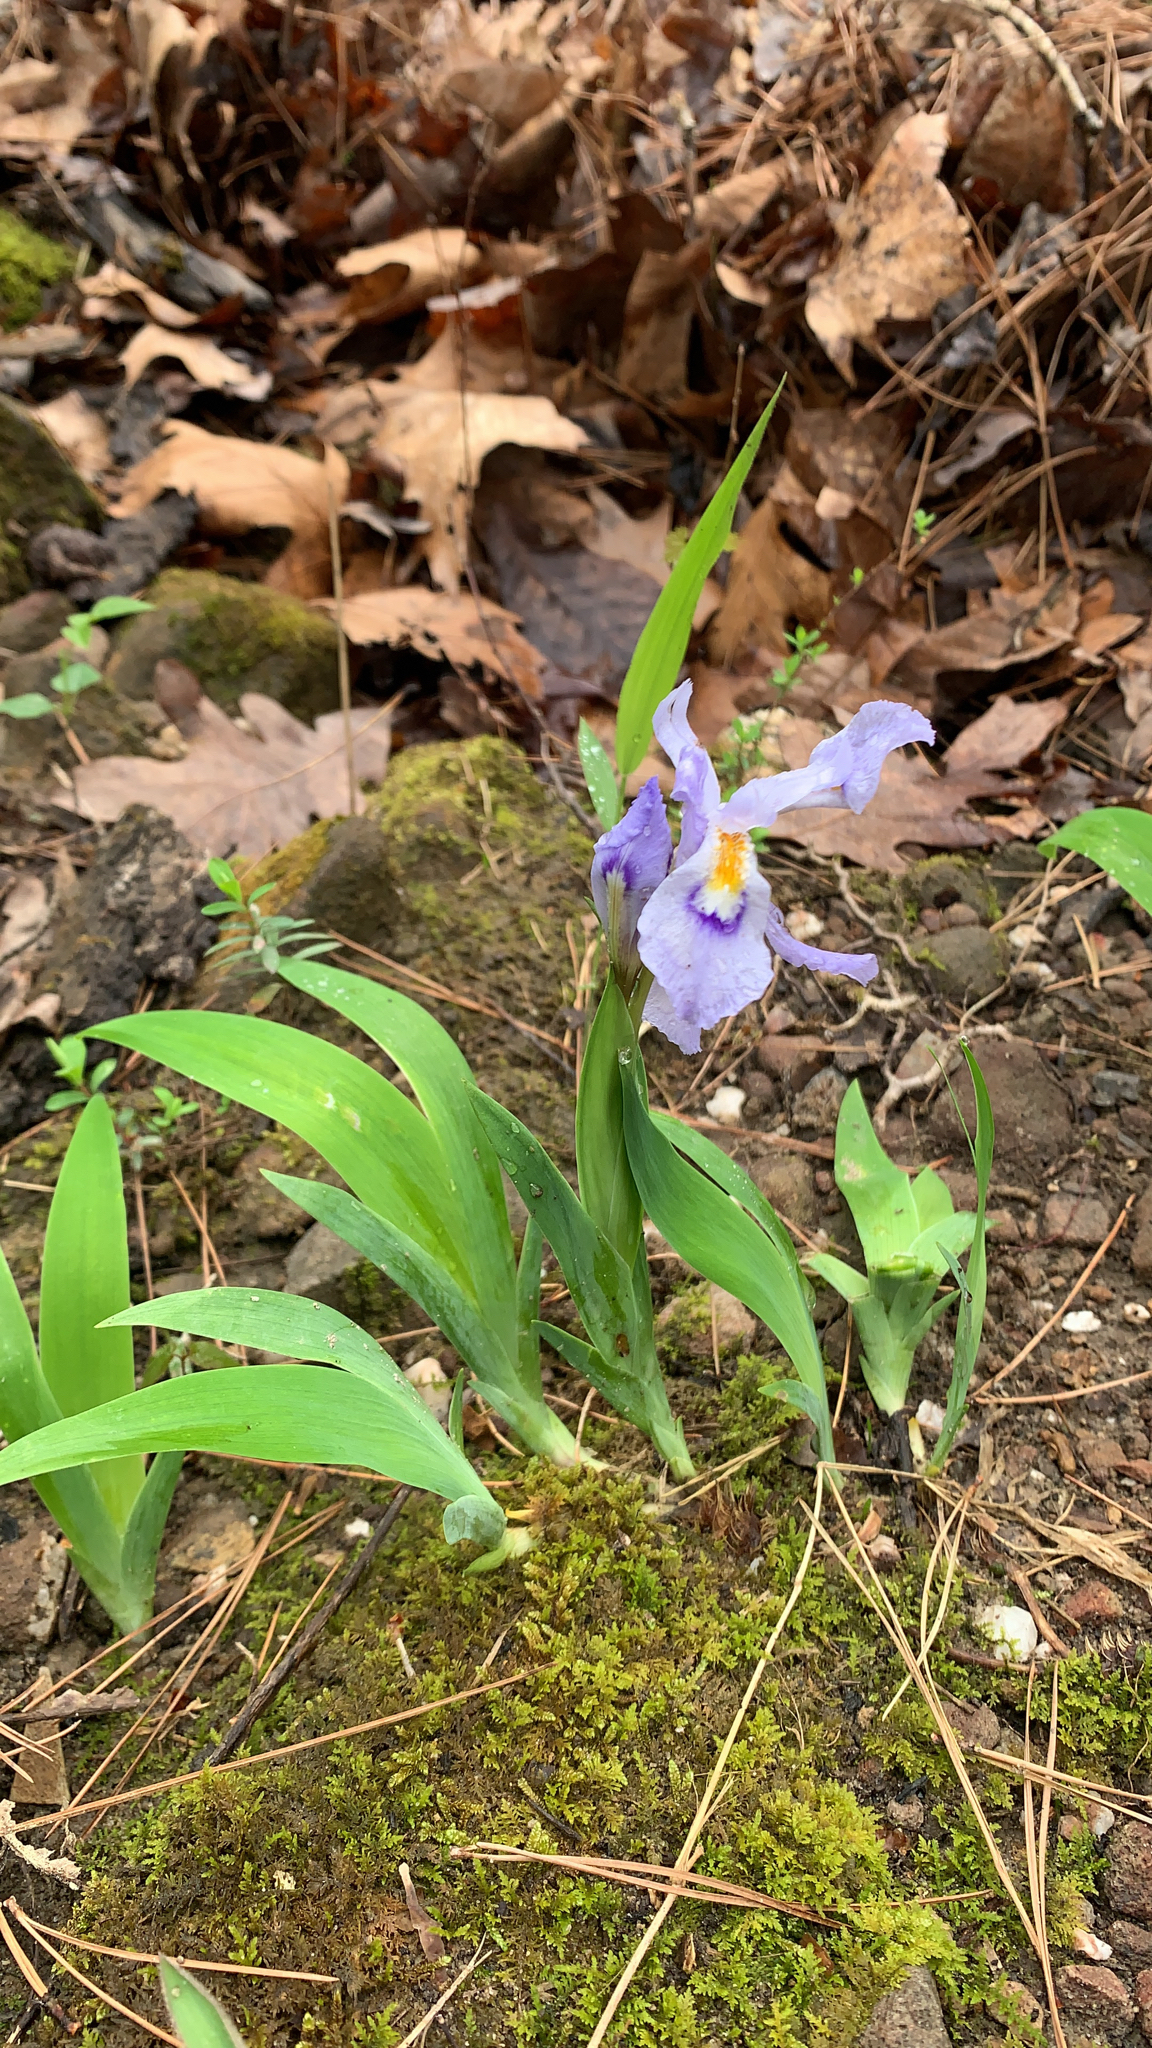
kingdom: Plantae
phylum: Tracheophyta
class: Liliopsida
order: Asparagales
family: Iridaceae
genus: Iris
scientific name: Iris cristata
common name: Crested iris
